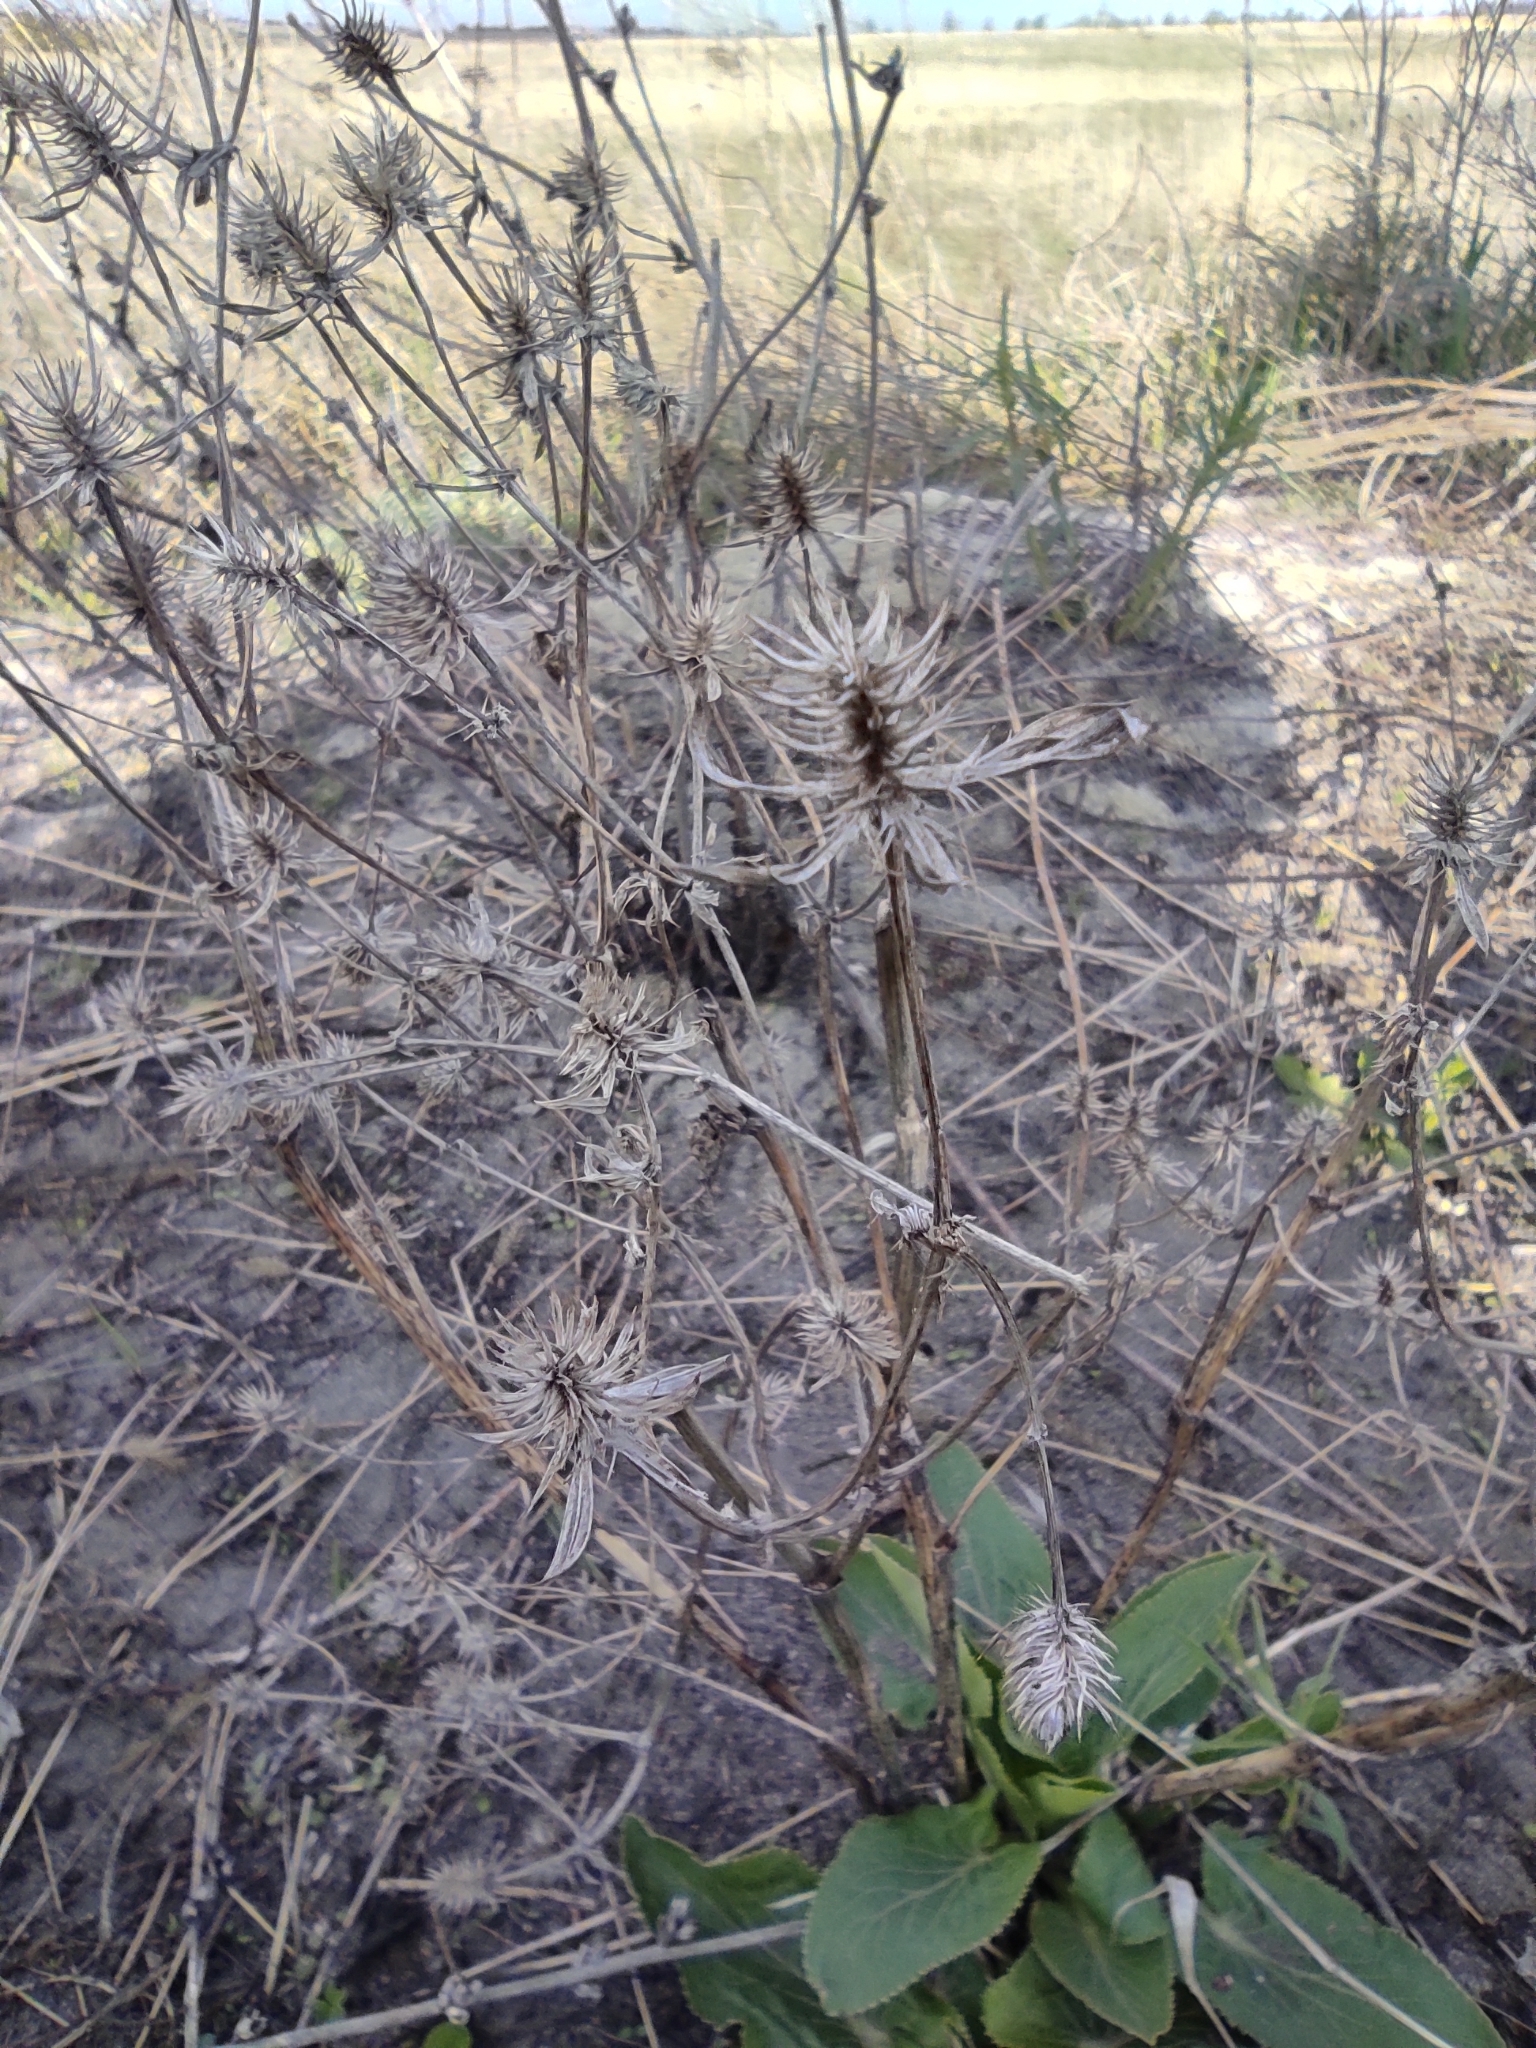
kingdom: Plantae
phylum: Tracheophyta
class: Magnoliopsida
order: Apiales
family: Apiaceae
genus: Eryngium
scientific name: Eryngium planum
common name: Blue eryngo
